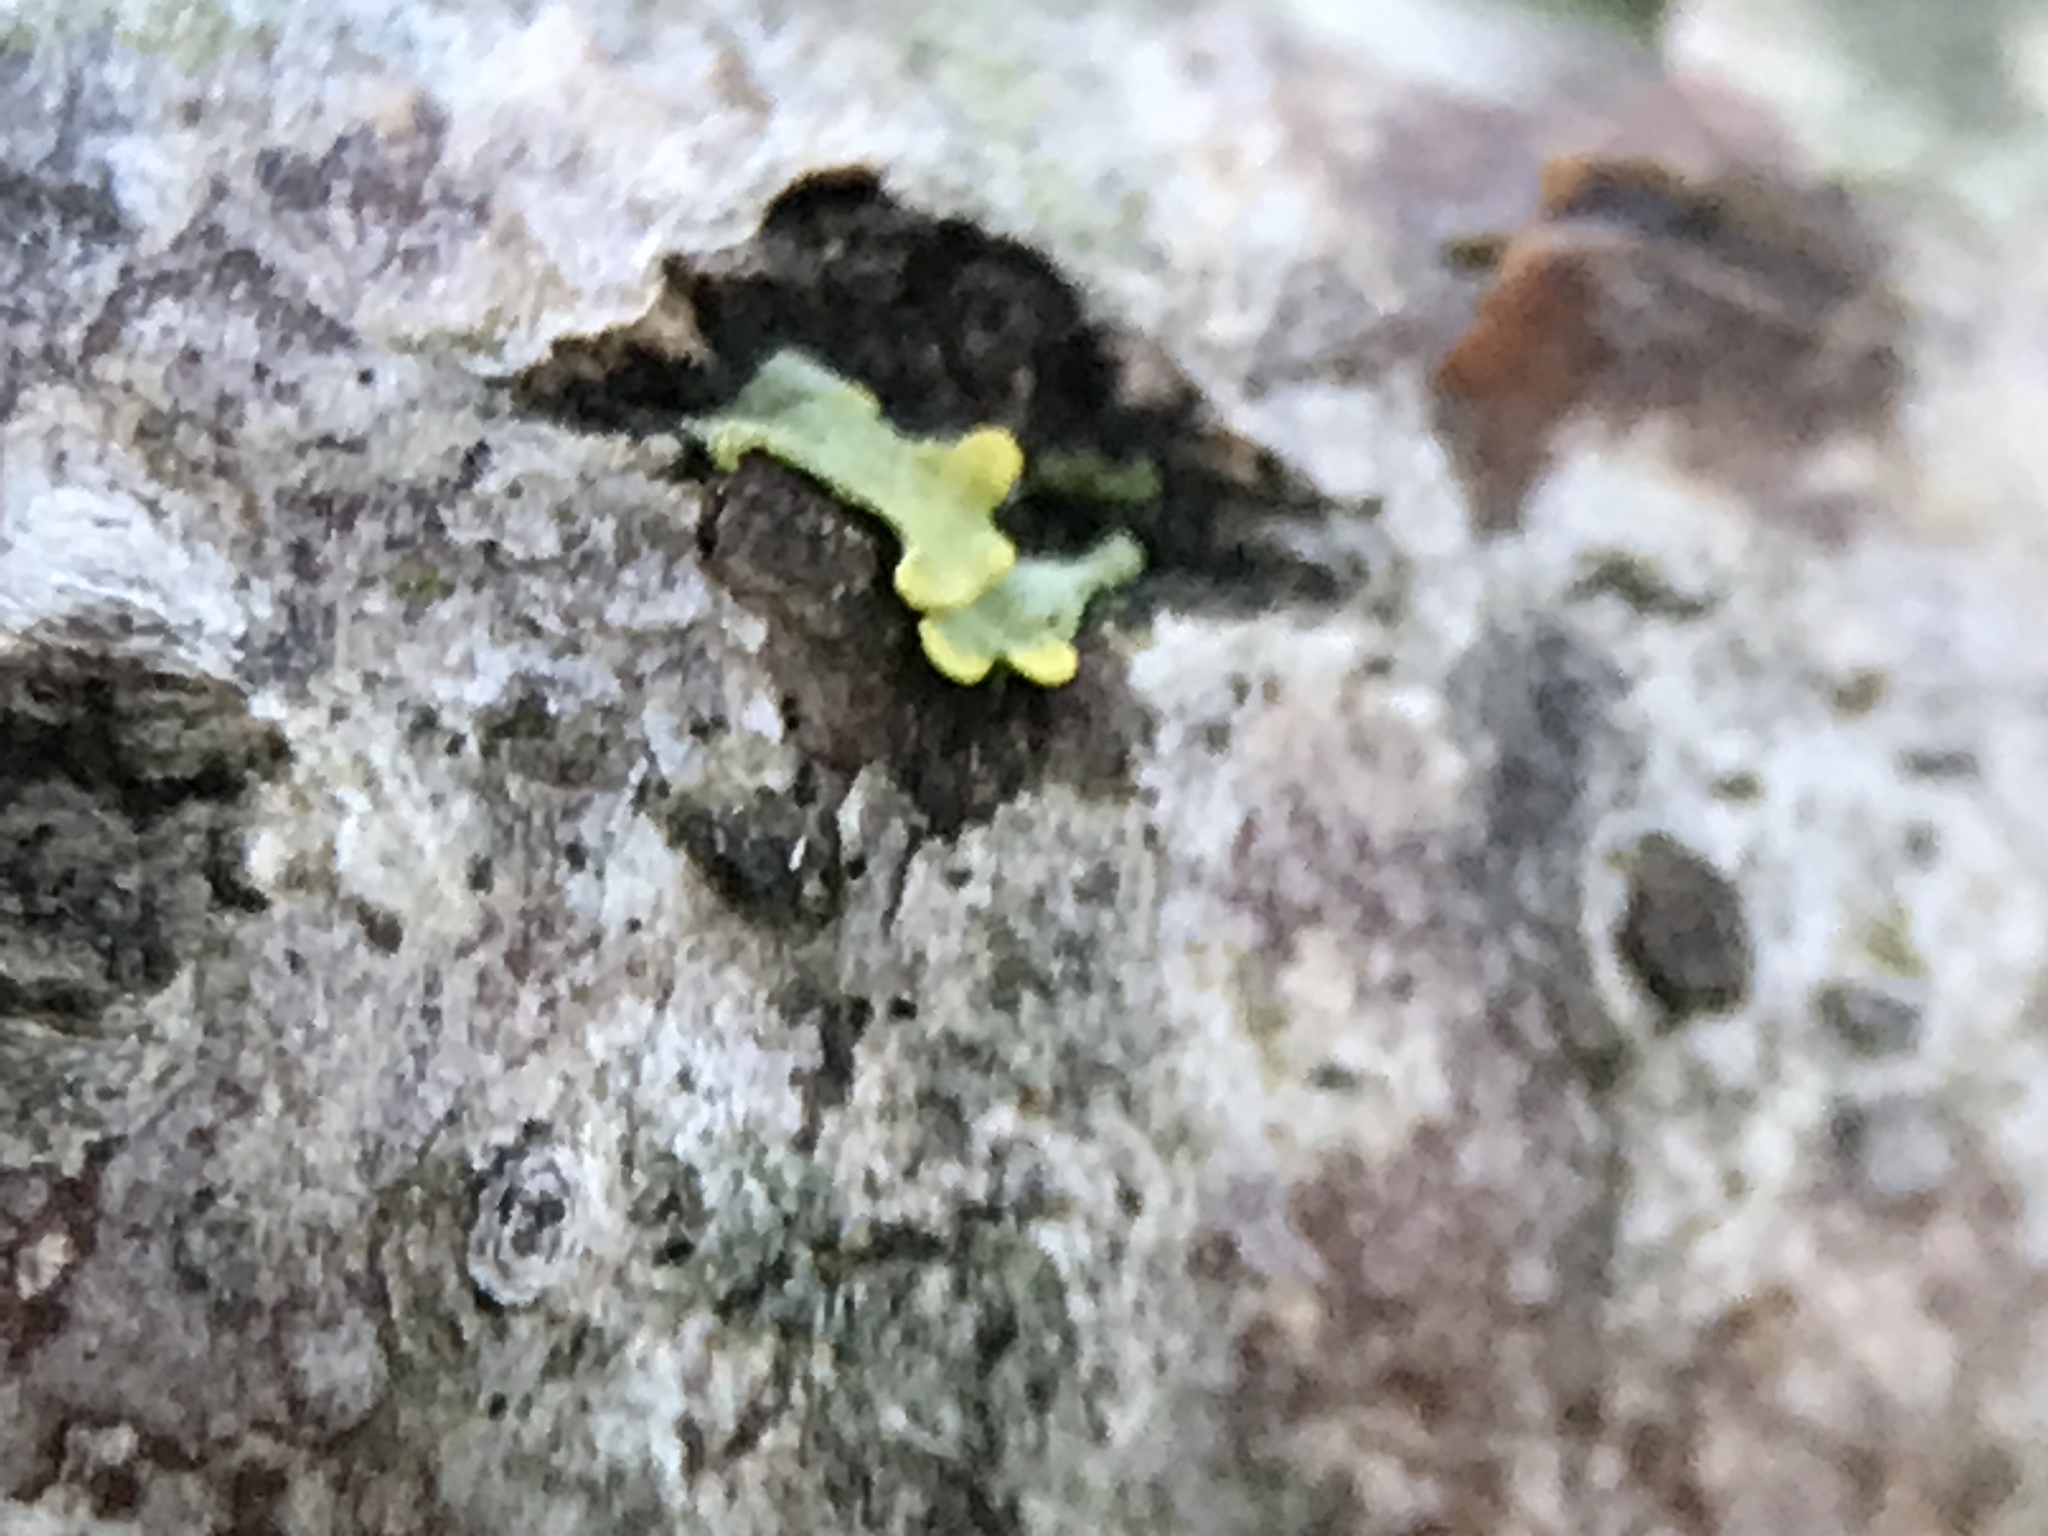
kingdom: Fungi
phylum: Ascomycota
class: Lecanoromycetes
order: Teloschistales
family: Teloschistaceae
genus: Xanthoria
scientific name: Xanthoria parietina
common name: Common orange lichen
